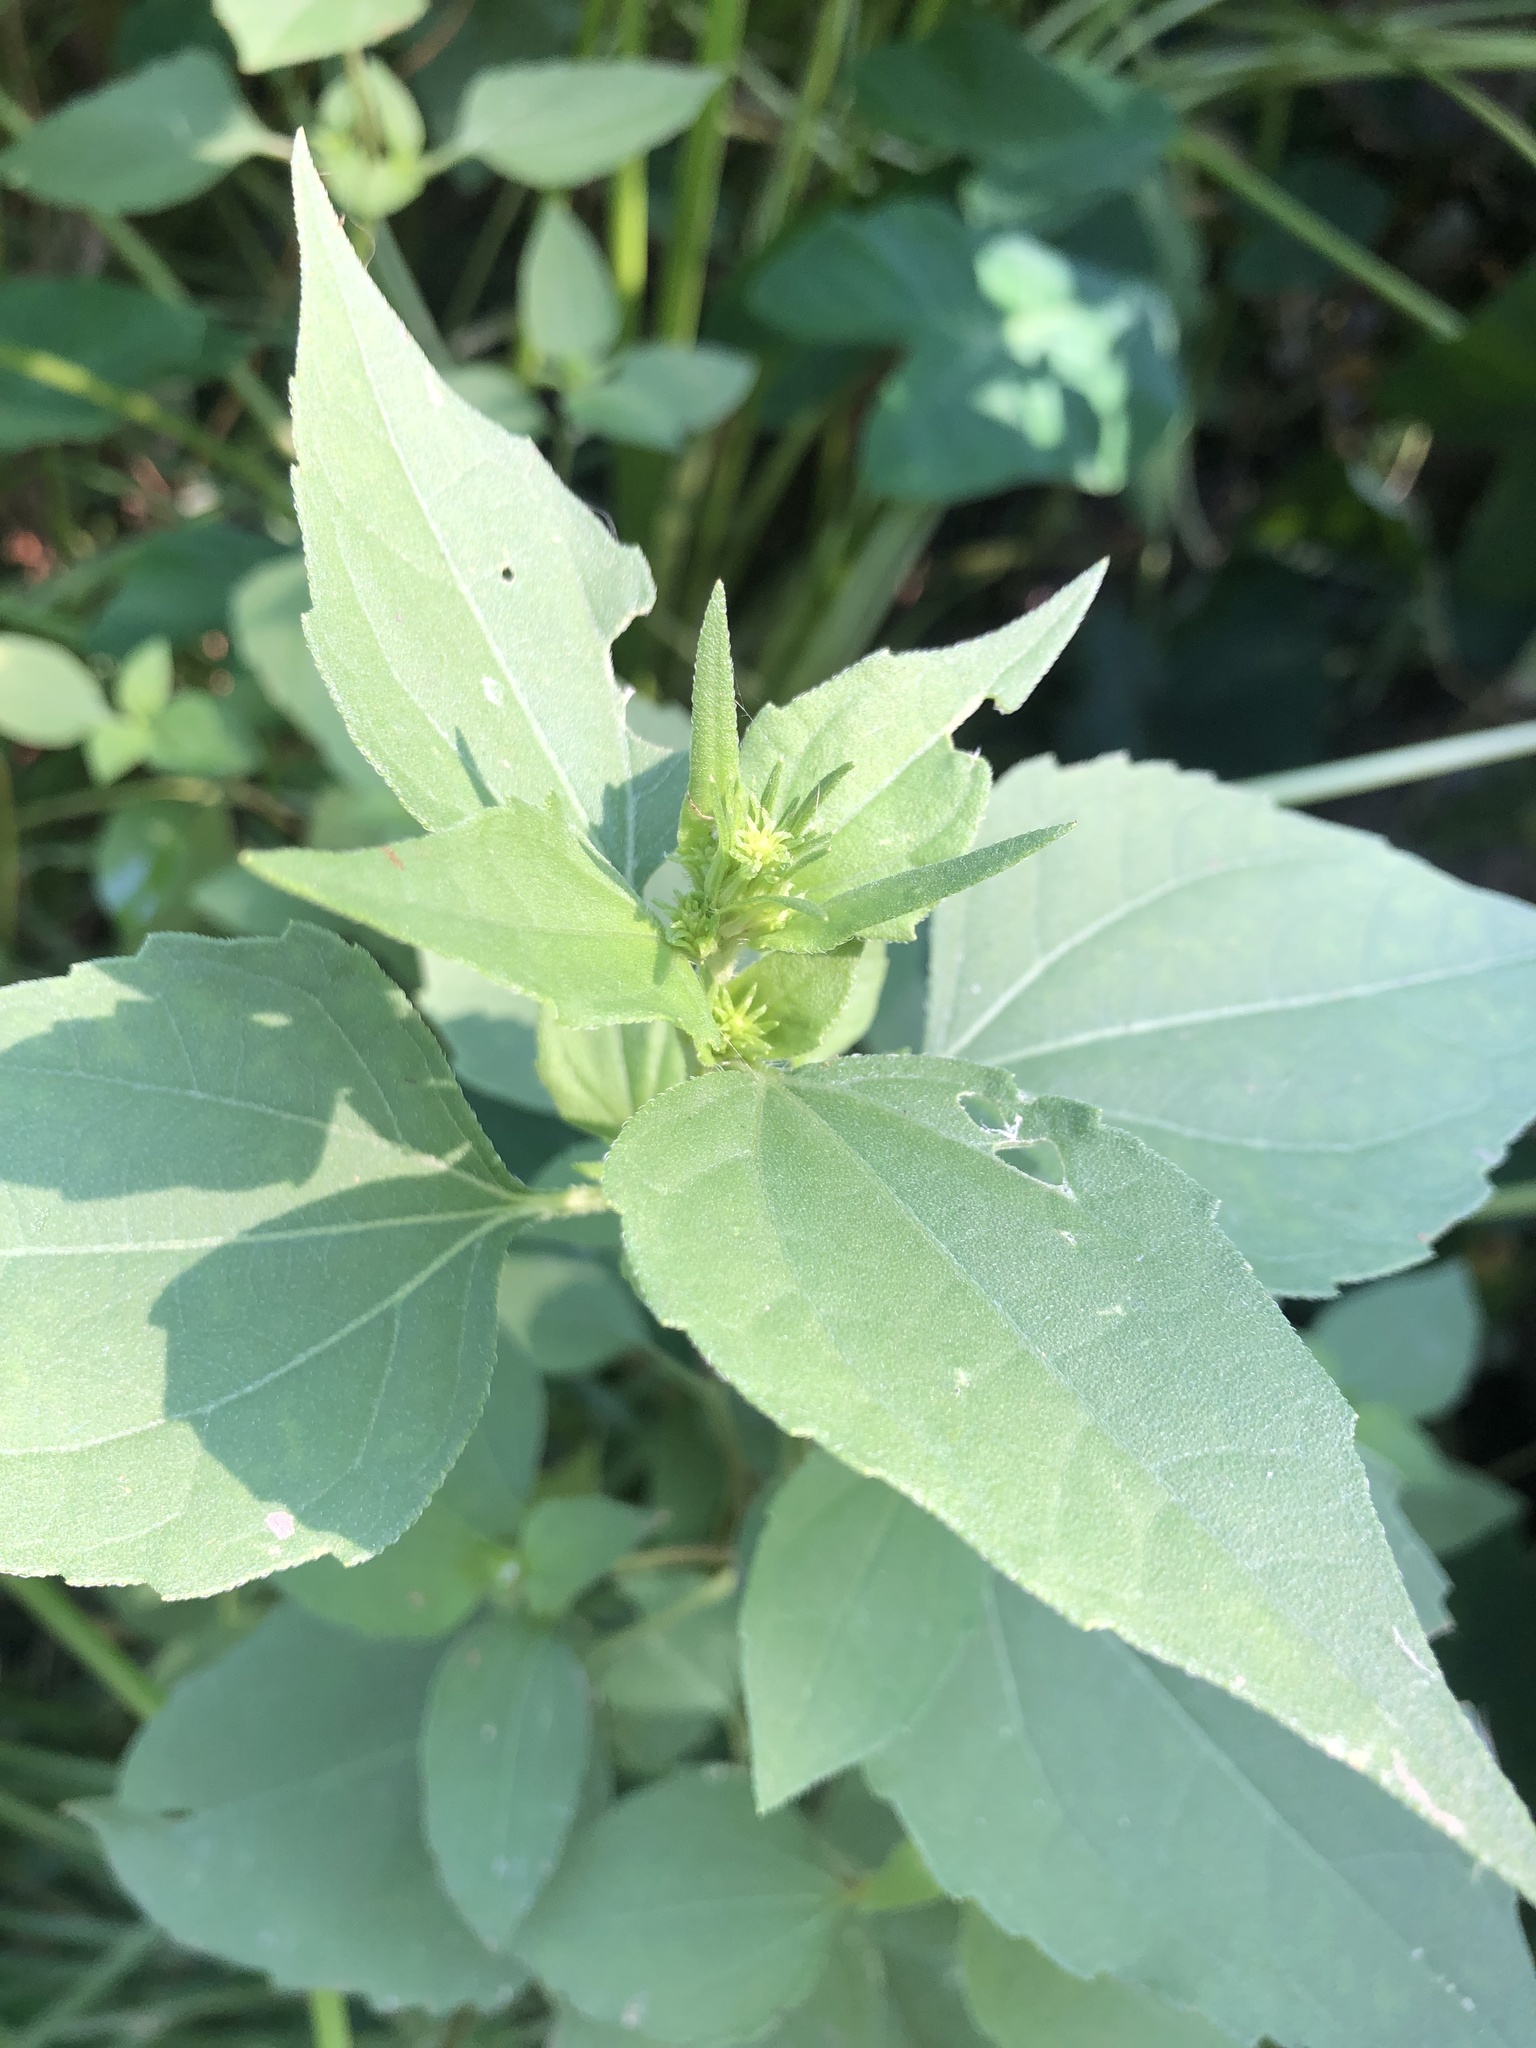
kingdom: Plantae
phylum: Tracheophyta
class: Magnoliopsida
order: Asterales
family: Asteraceae
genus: Iva
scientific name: Iva annua
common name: Marsh-elder
